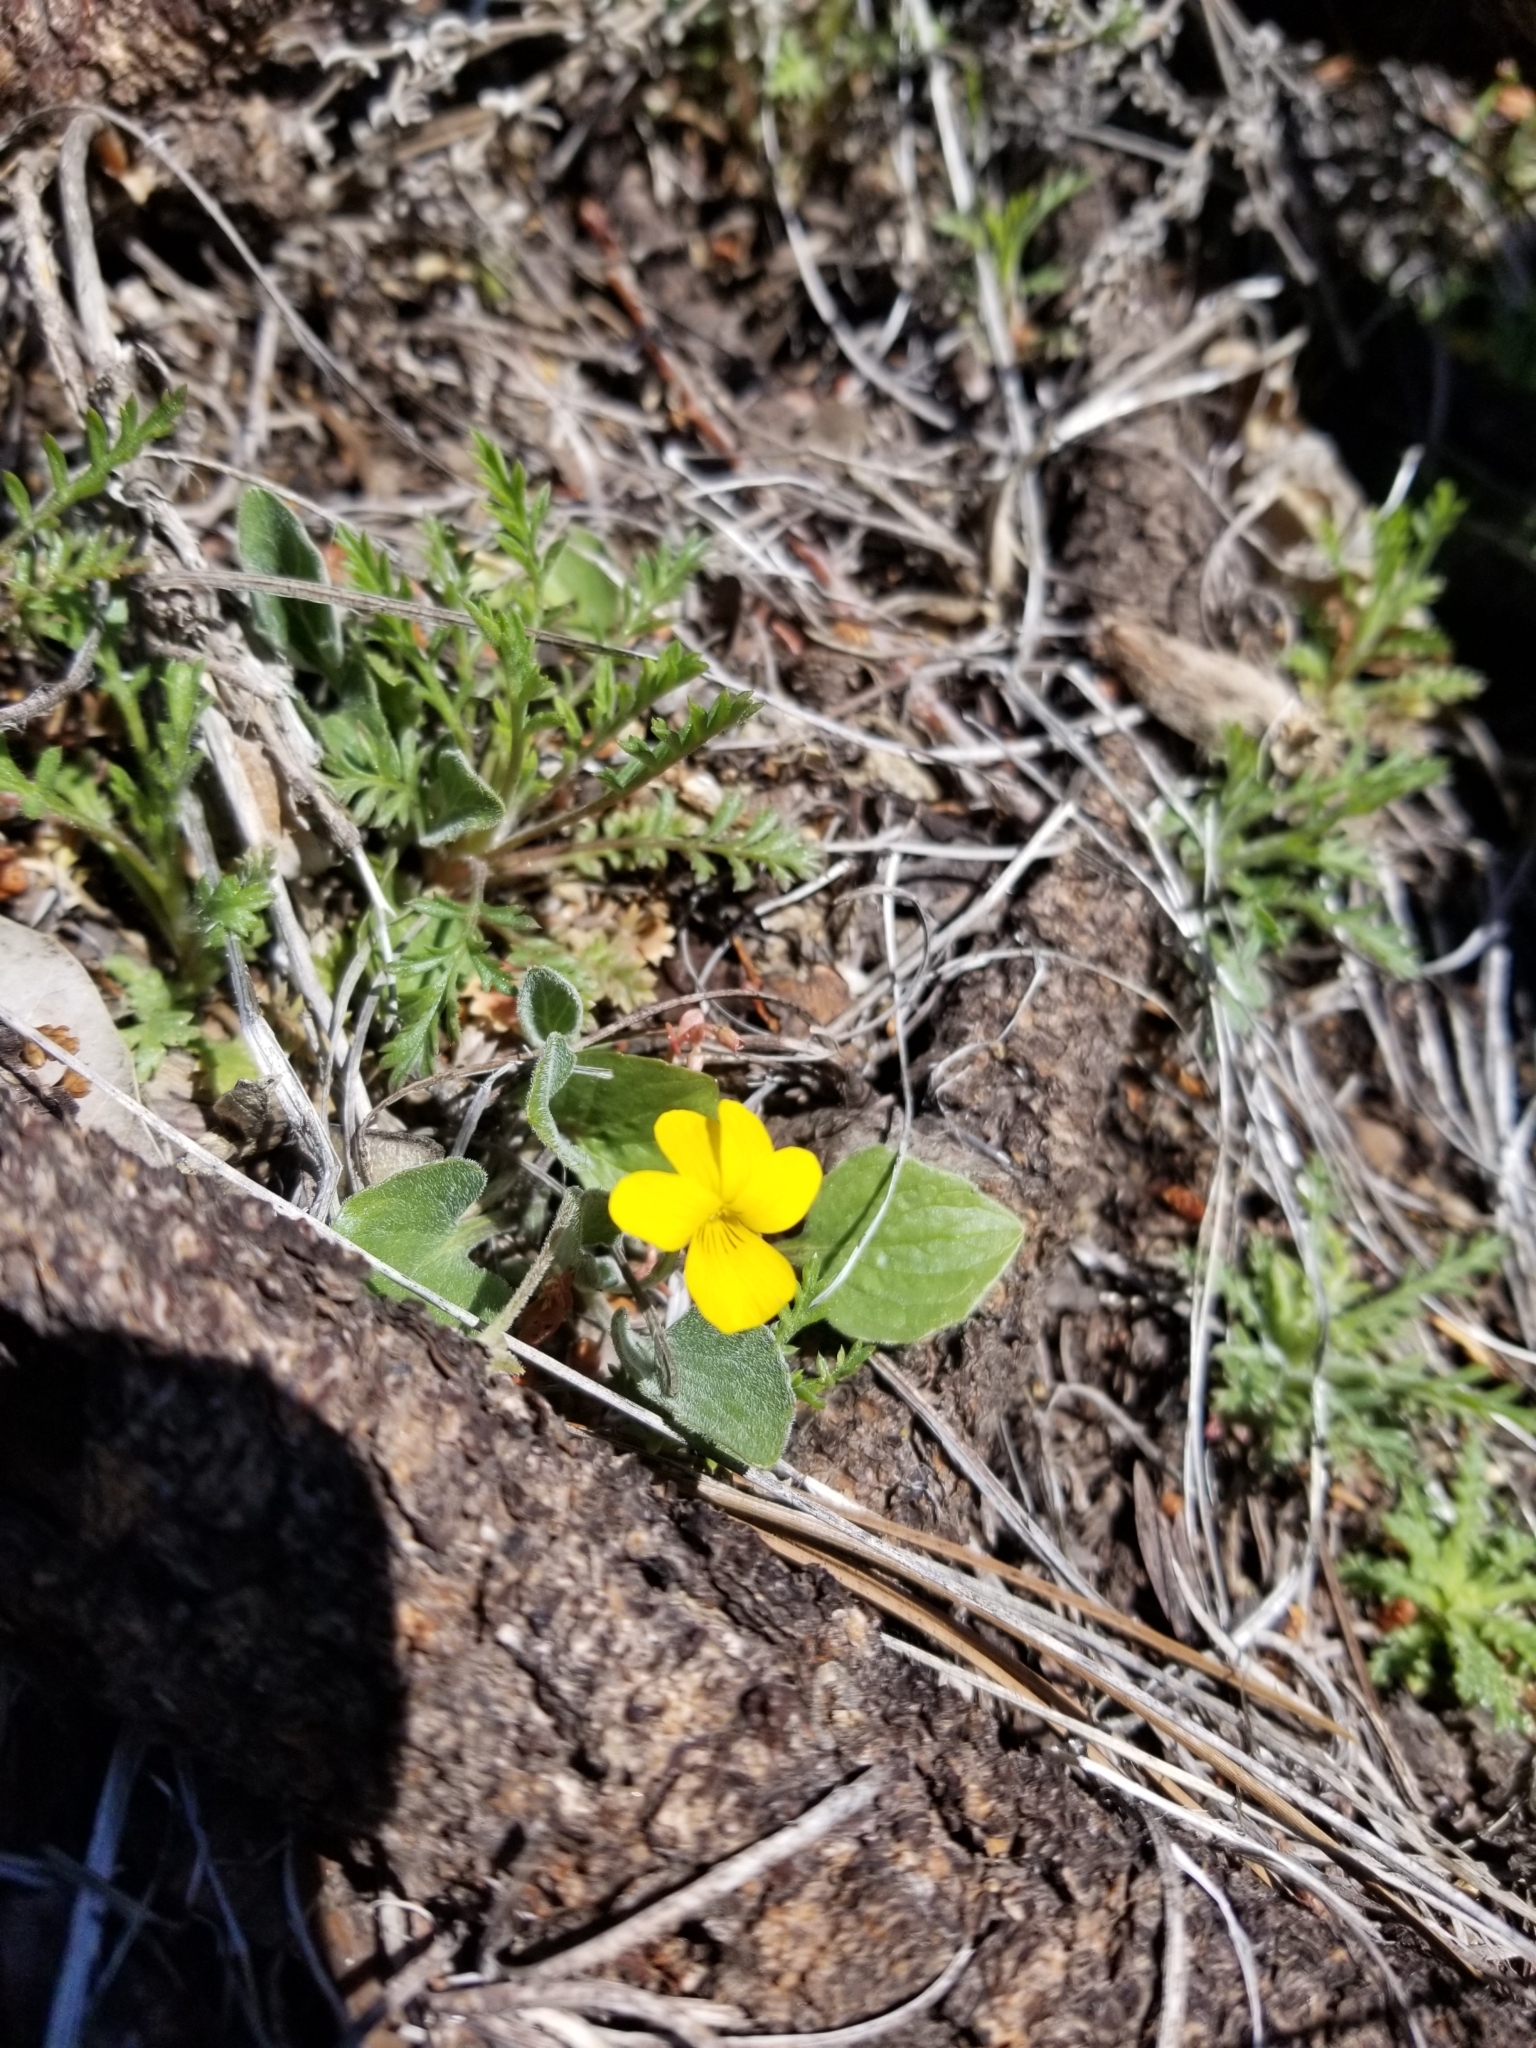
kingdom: Plantae
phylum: Tracheophyta
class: Magnoliopsida
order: Malpighiales
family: Violaceae
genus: Viola
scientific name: Viola purpurea
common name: Pine violet
